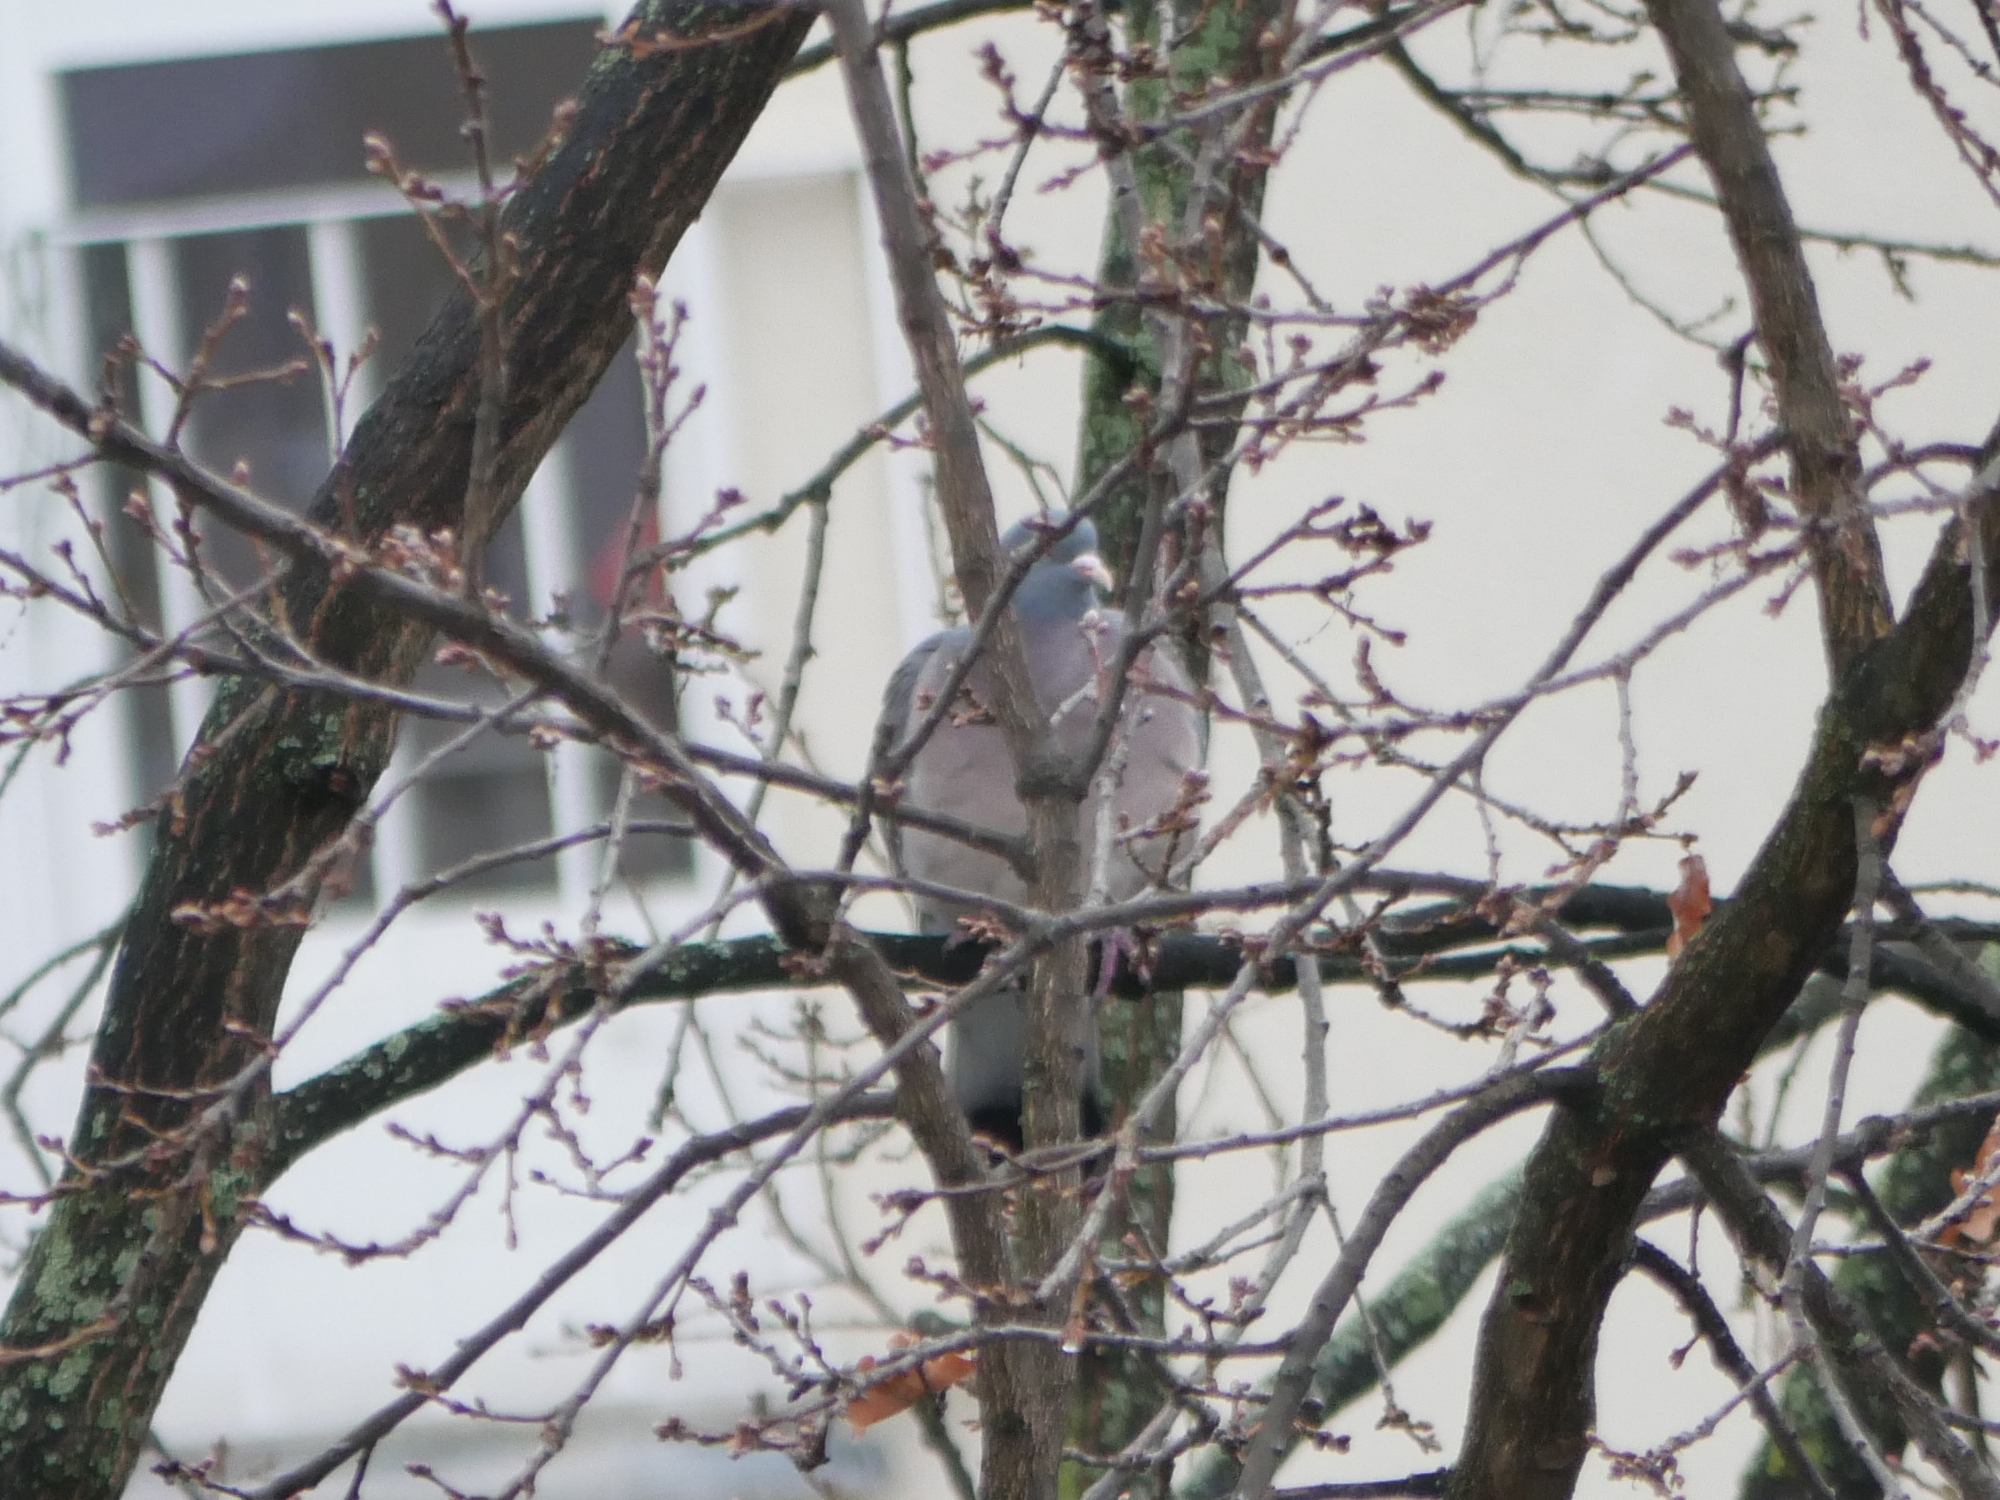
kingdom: Animalia
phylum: Chordata
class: Aves
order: Columbiformes
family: Columbidae
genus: Columba
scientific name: Columba palumbus
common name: Common wood pigeon
